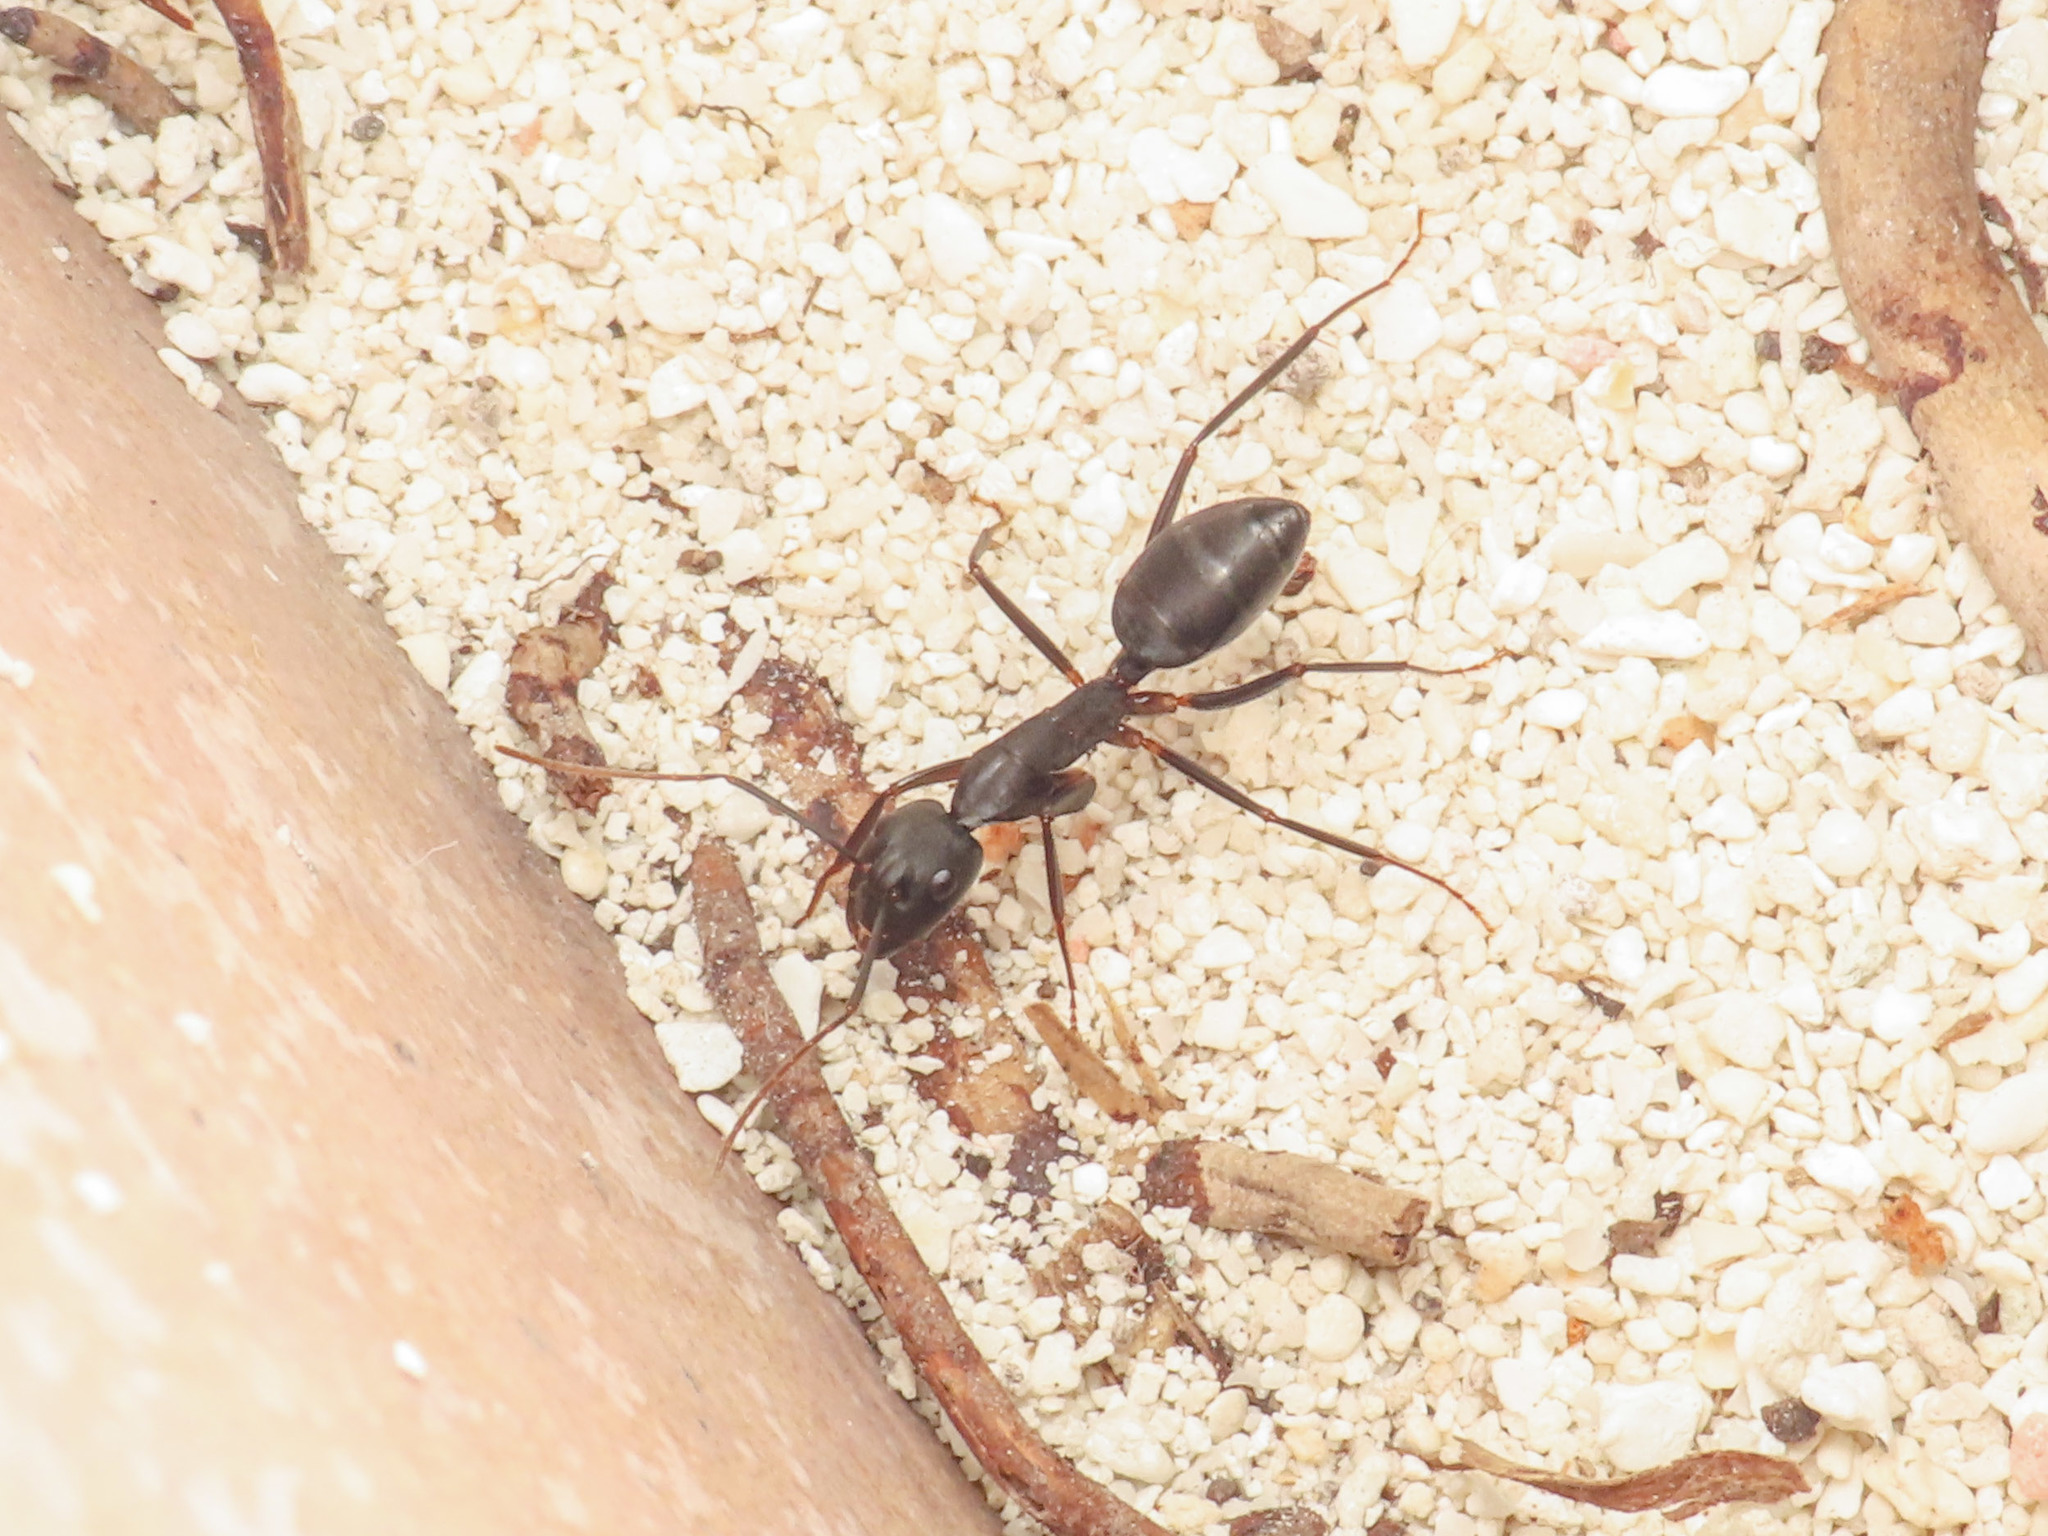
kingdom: Animalia
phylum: Arthropoda
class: Insecta
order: Hymenoptera
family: Formicidae
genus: Camponotus
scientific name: Camponotus compressus
